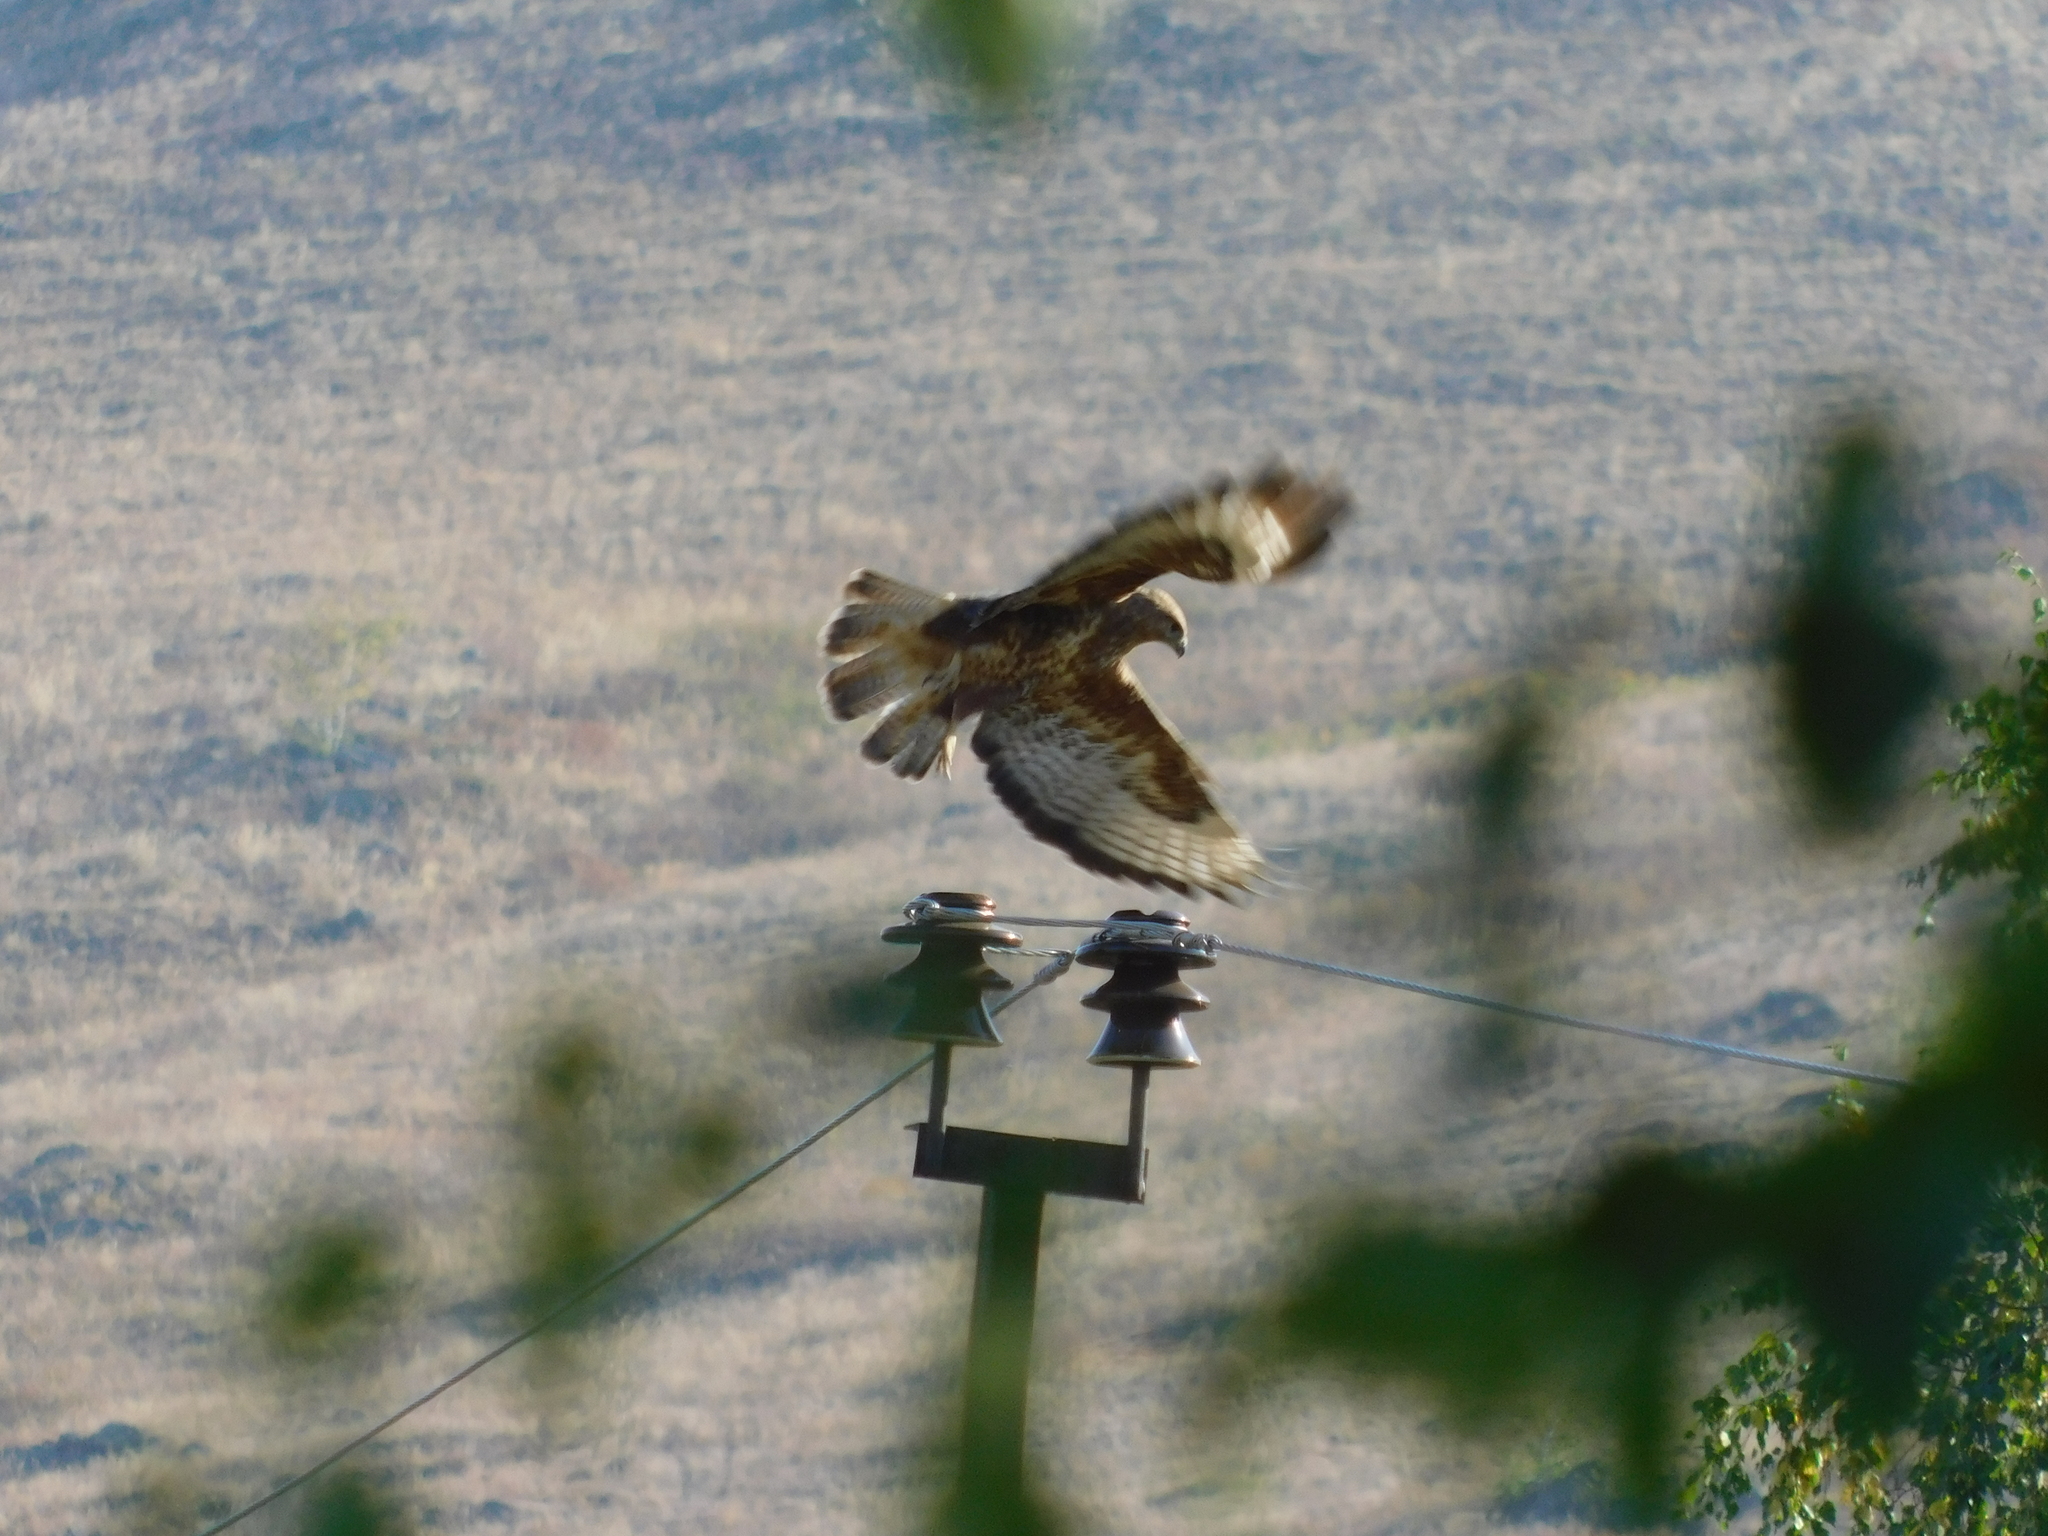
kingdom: Animalia
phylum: Chordata
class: Aves
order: Accipitriformes
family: Accipitridae
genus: Buteo
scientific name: Buteo buteo
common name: Common buzzard
